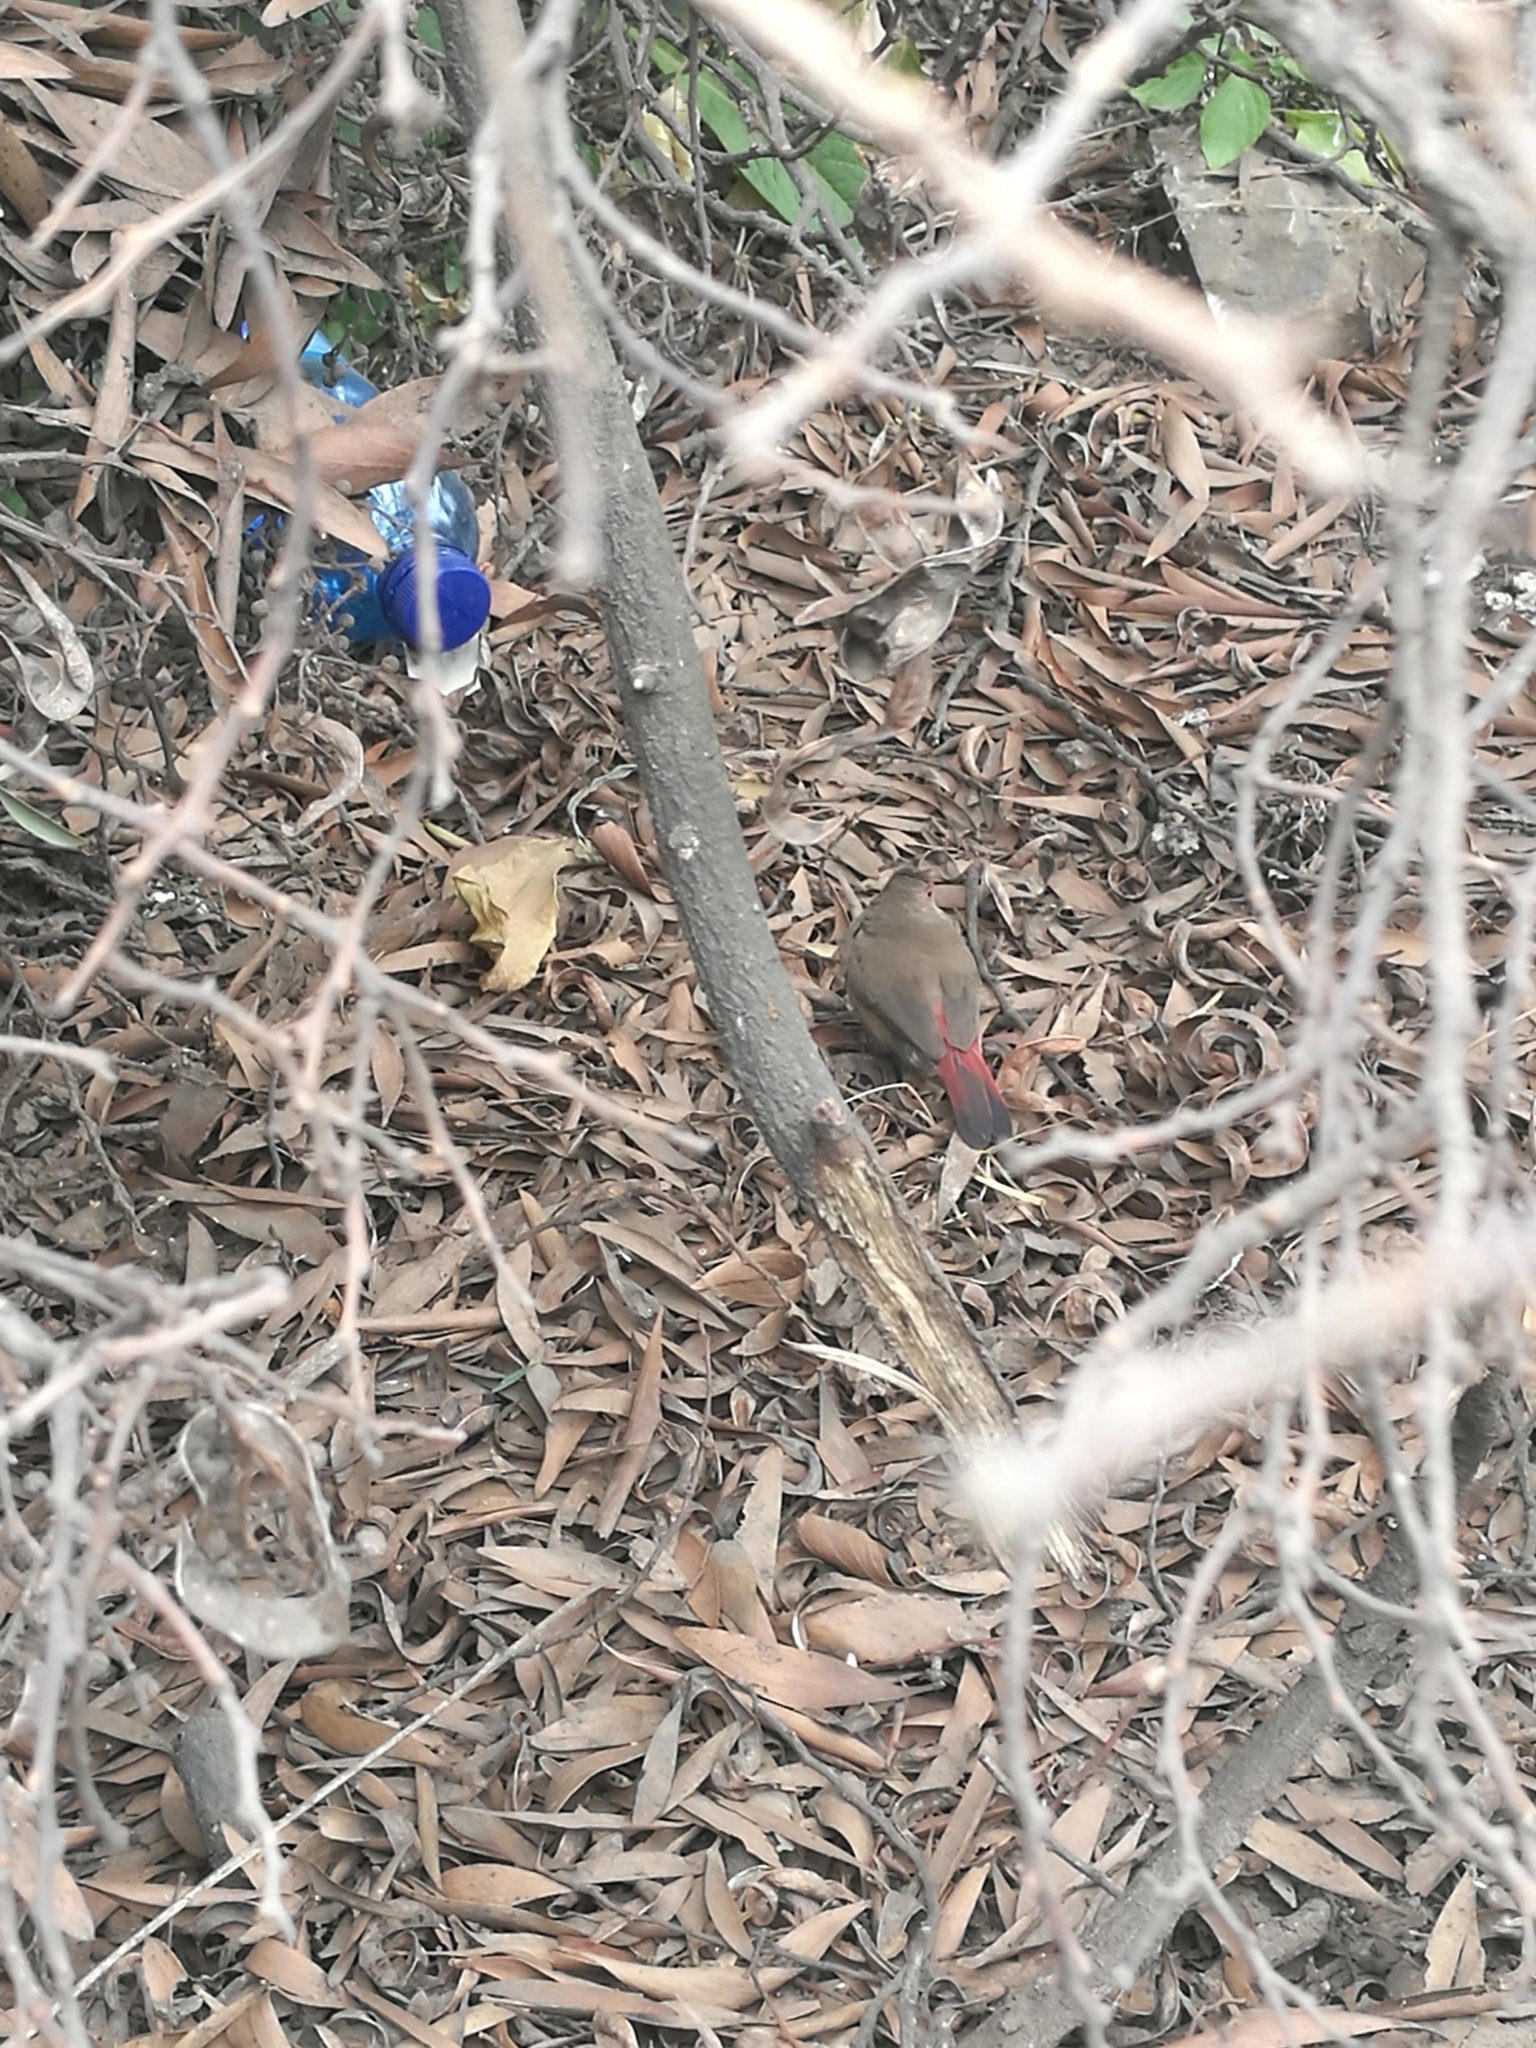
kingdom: Animalia
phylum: Chordata
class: Aves
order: Passeriformes
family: Estrildidae
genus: Lagonosticta
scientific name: Lagonosticta senegala
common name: Red-billed firefinch
